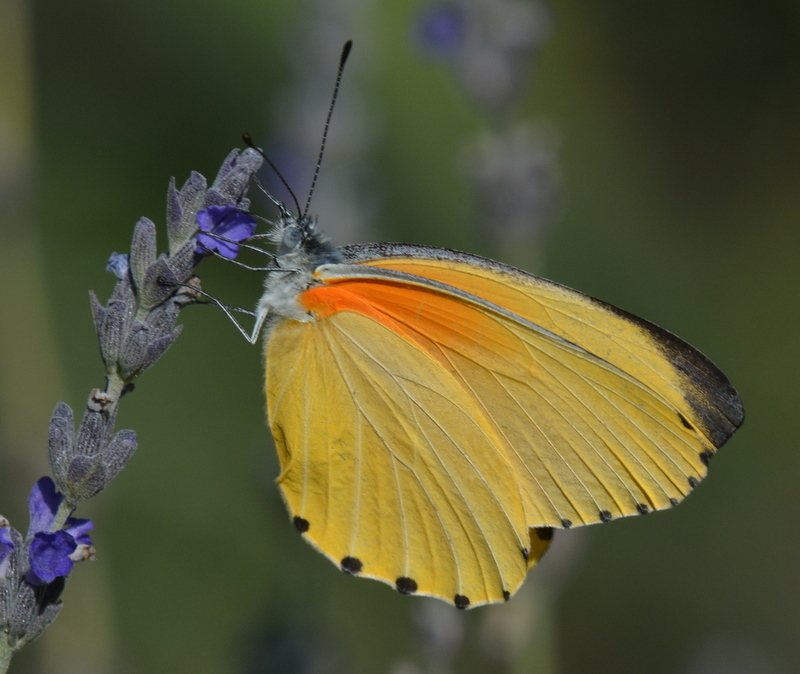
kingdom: Animalia
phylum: Arthropoda
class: Insecta
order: Lepidoptera
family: Pieridae
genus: Mylothris
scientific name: Mylothris agathina
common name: Eastern dotted border
